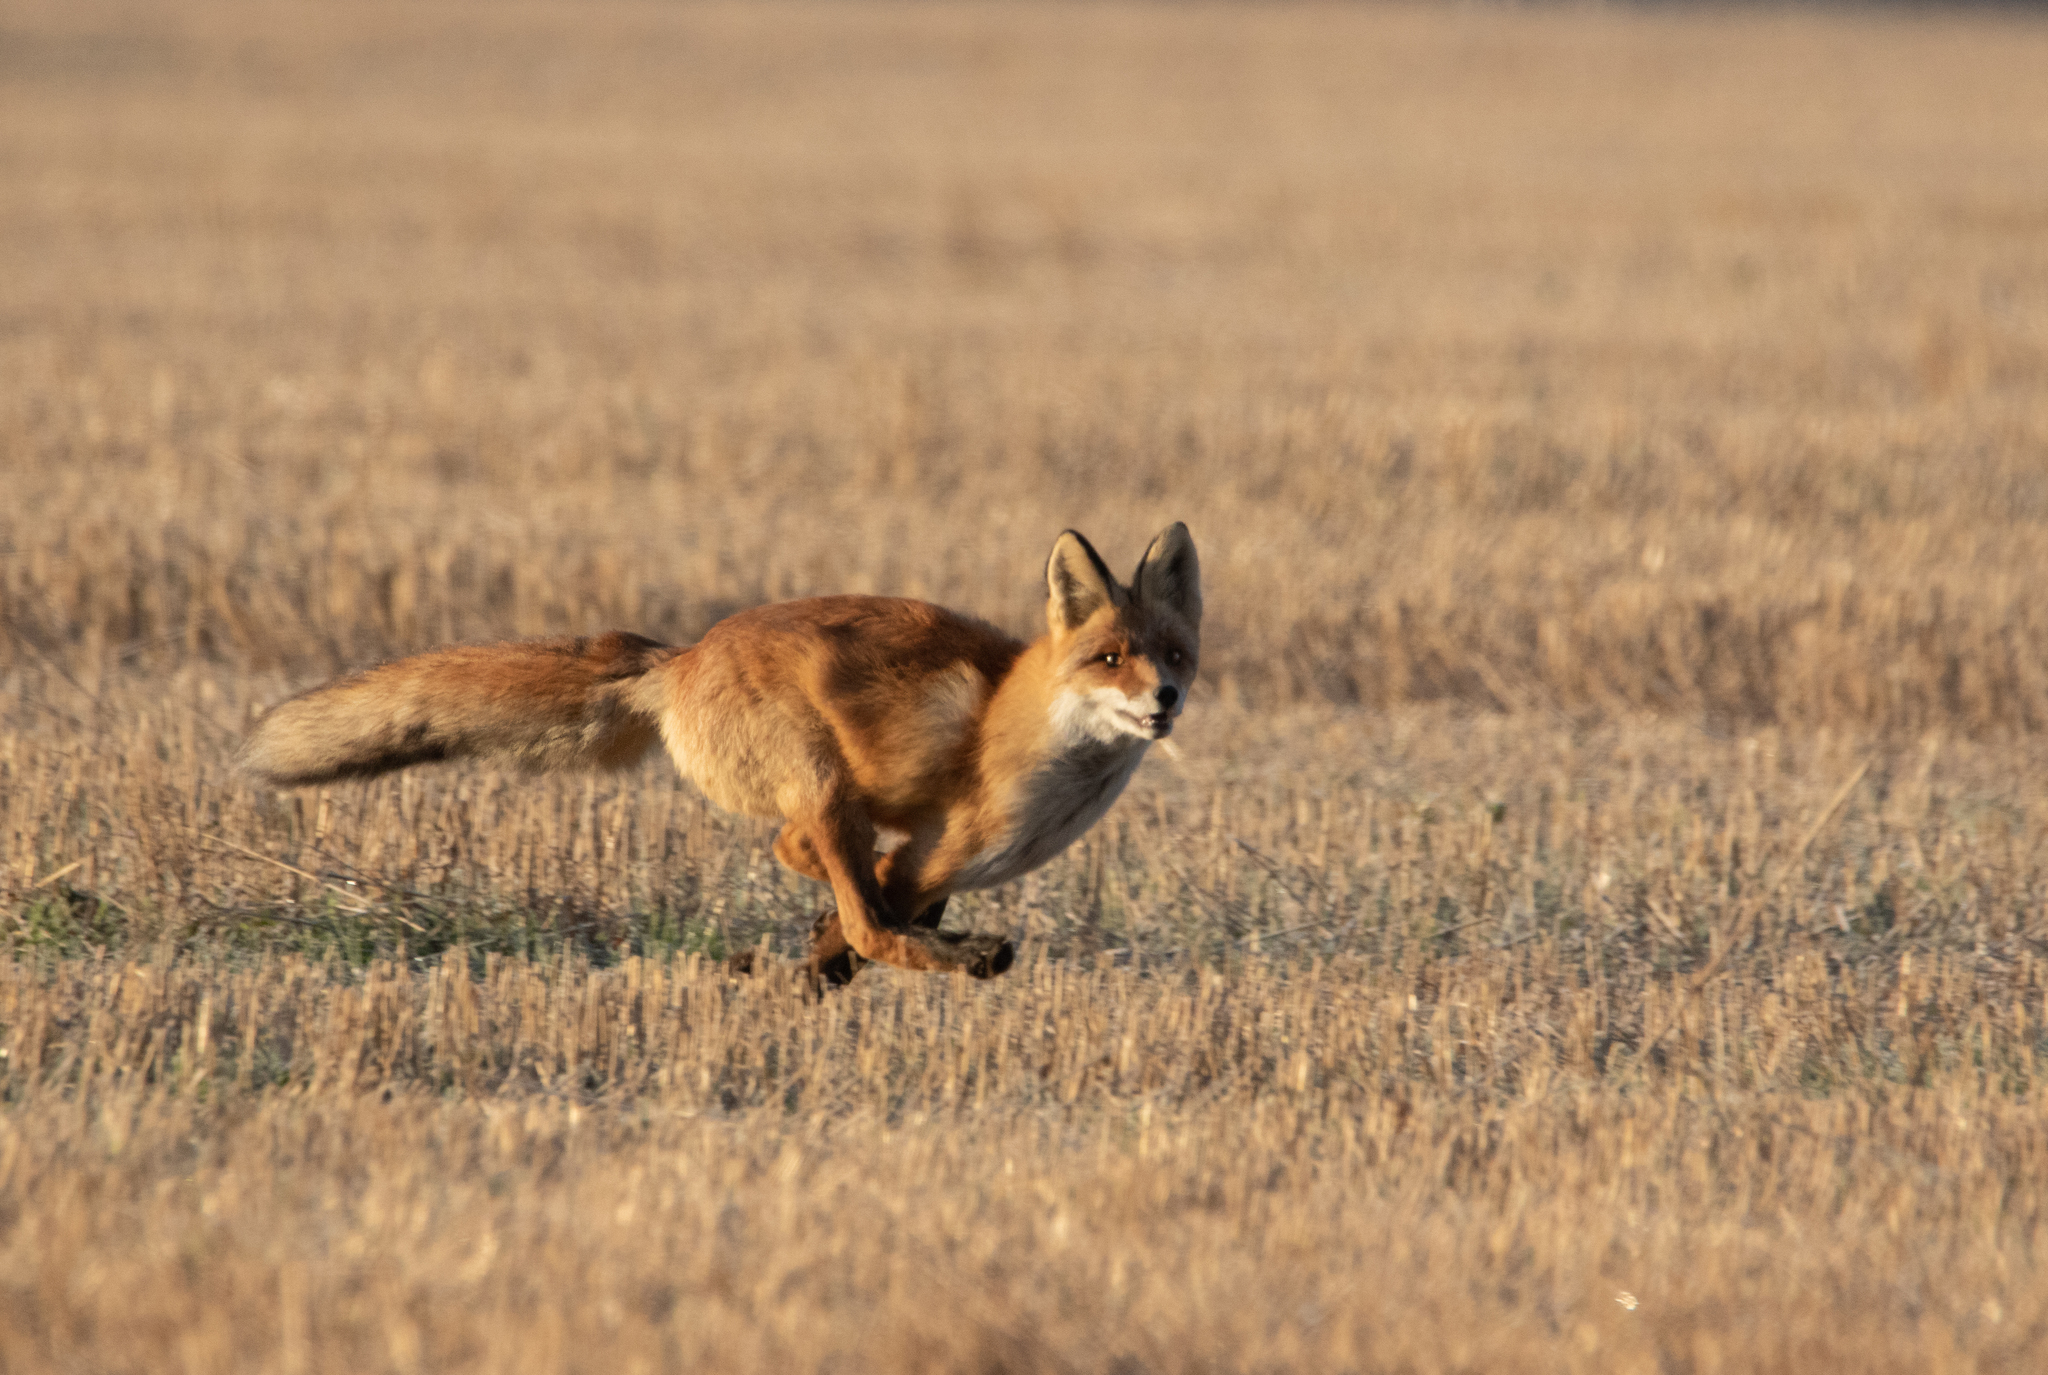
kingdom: Animalia
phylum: Chordata
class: Mammalia
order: Carnivora
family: Canidae
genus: Vulpes
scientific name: Vulpes vulpes
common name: Red fox
